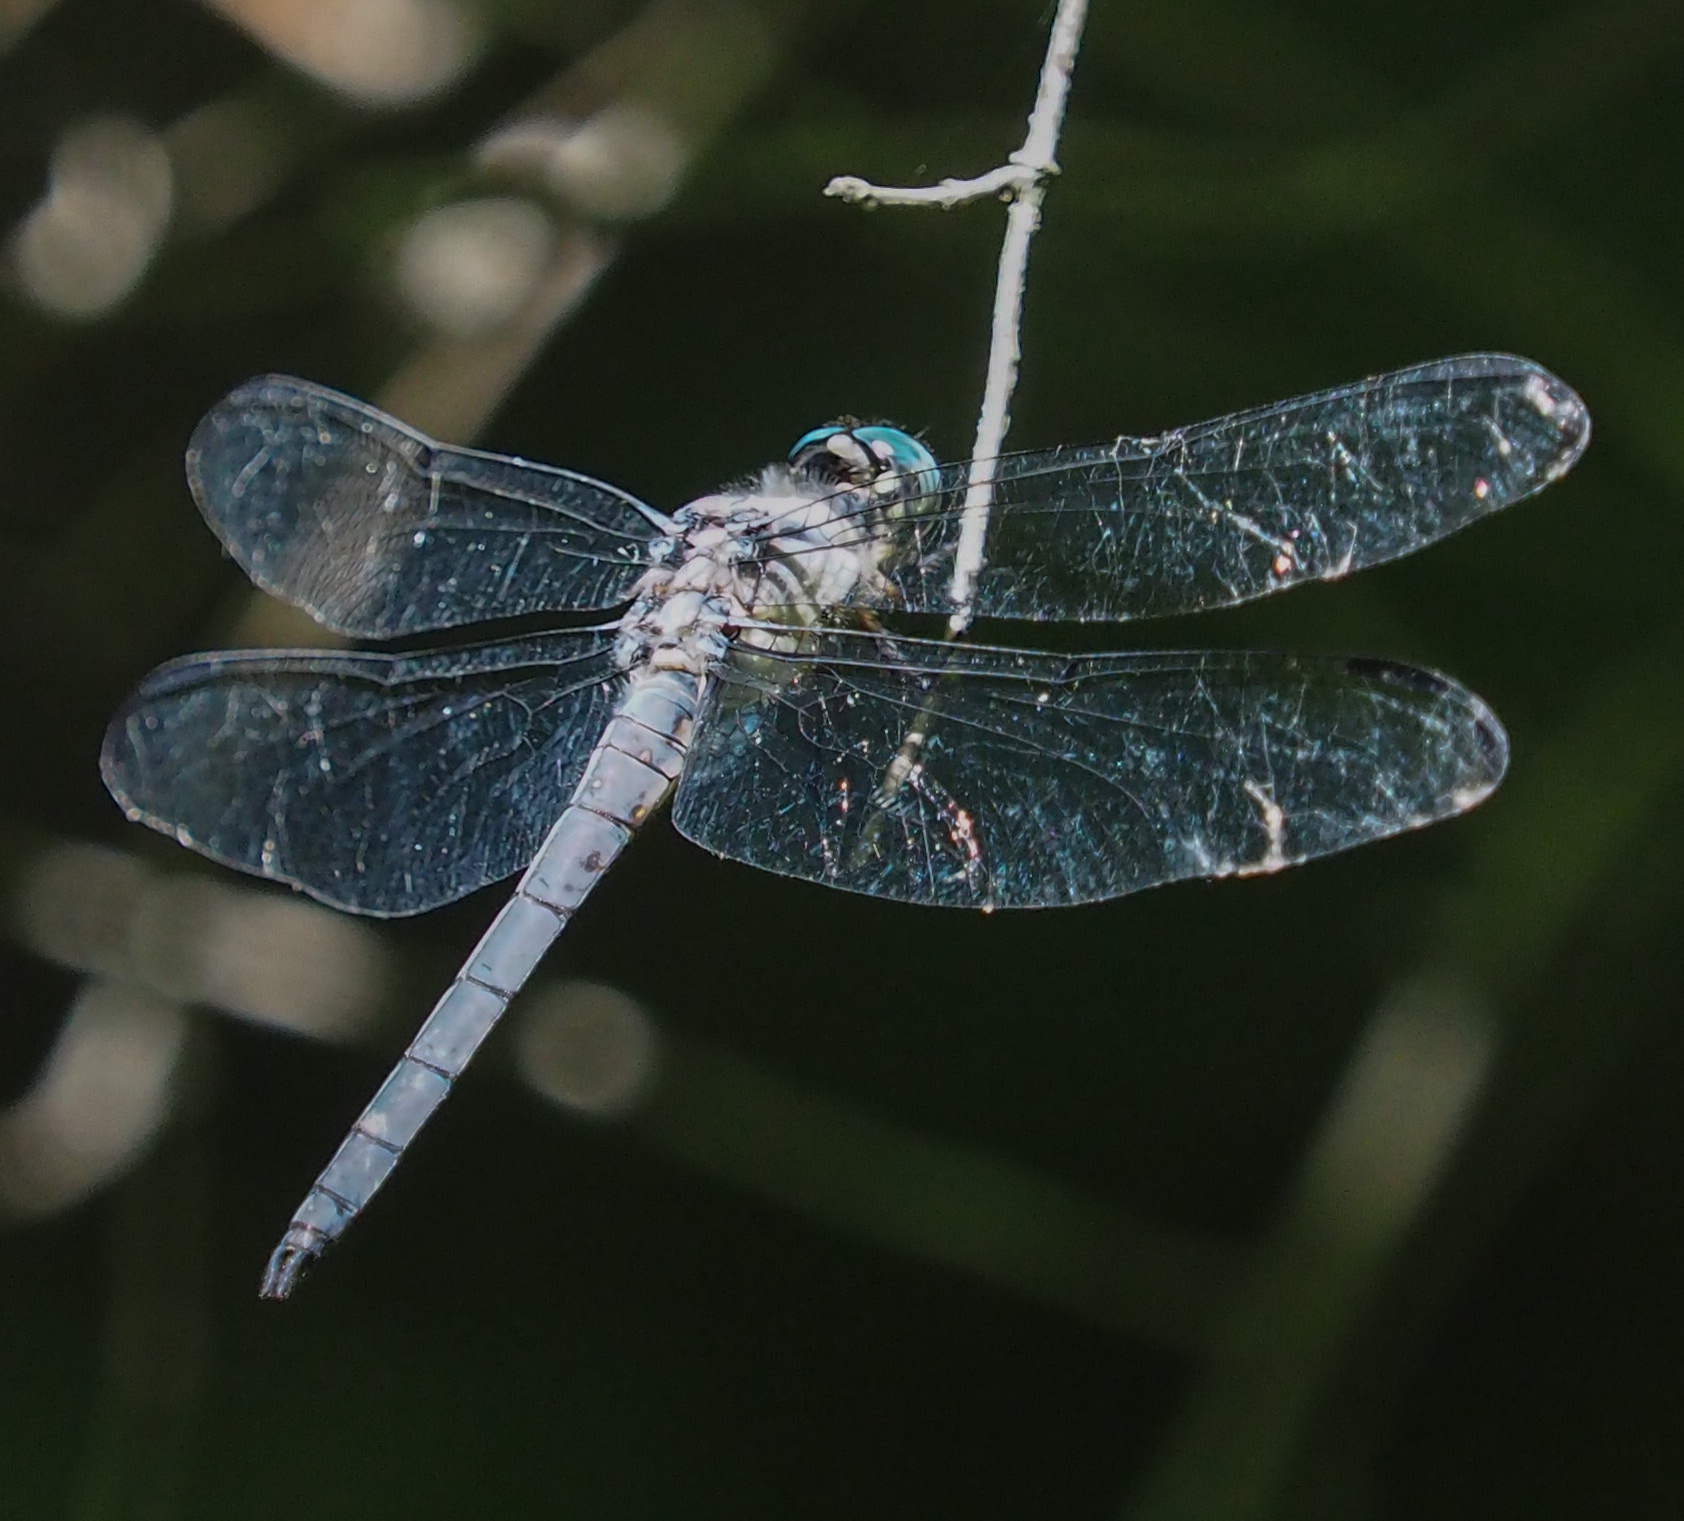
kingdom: Animalia
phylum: Arthropoda
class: Insecta
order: Odonata
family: Libellulidae
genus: Libellula
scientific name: Libellula vibrans
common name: Great blue skimmer
